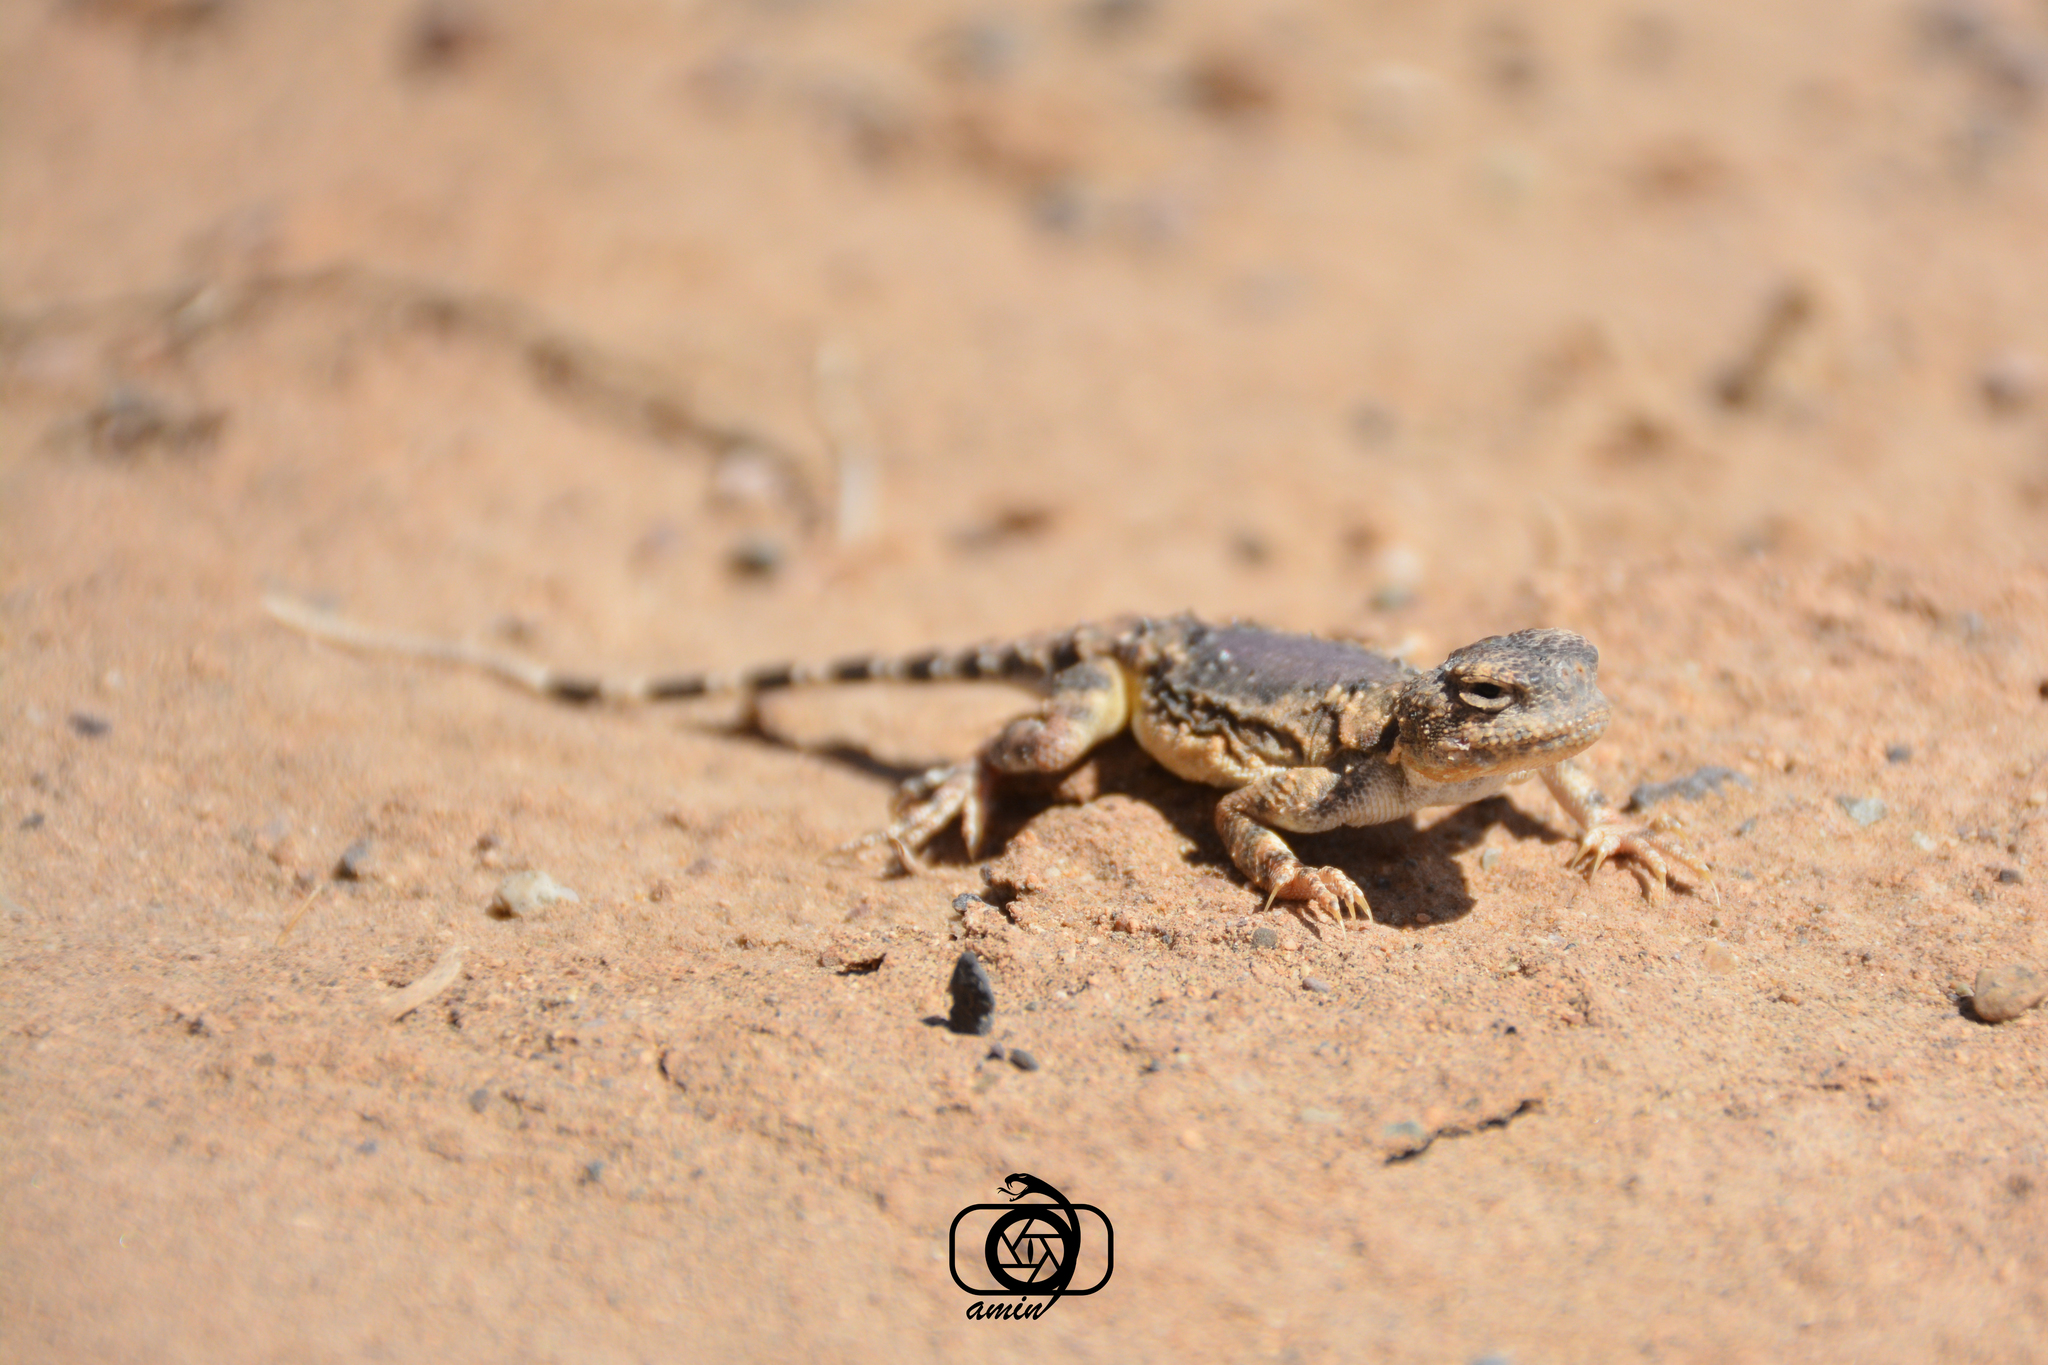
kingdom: Animalia
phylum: Chordata
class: Squamata
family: Agamidae
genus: Phrynocephalus
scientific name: Phrynocephalus scutellatus
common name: Gray toad head agama
